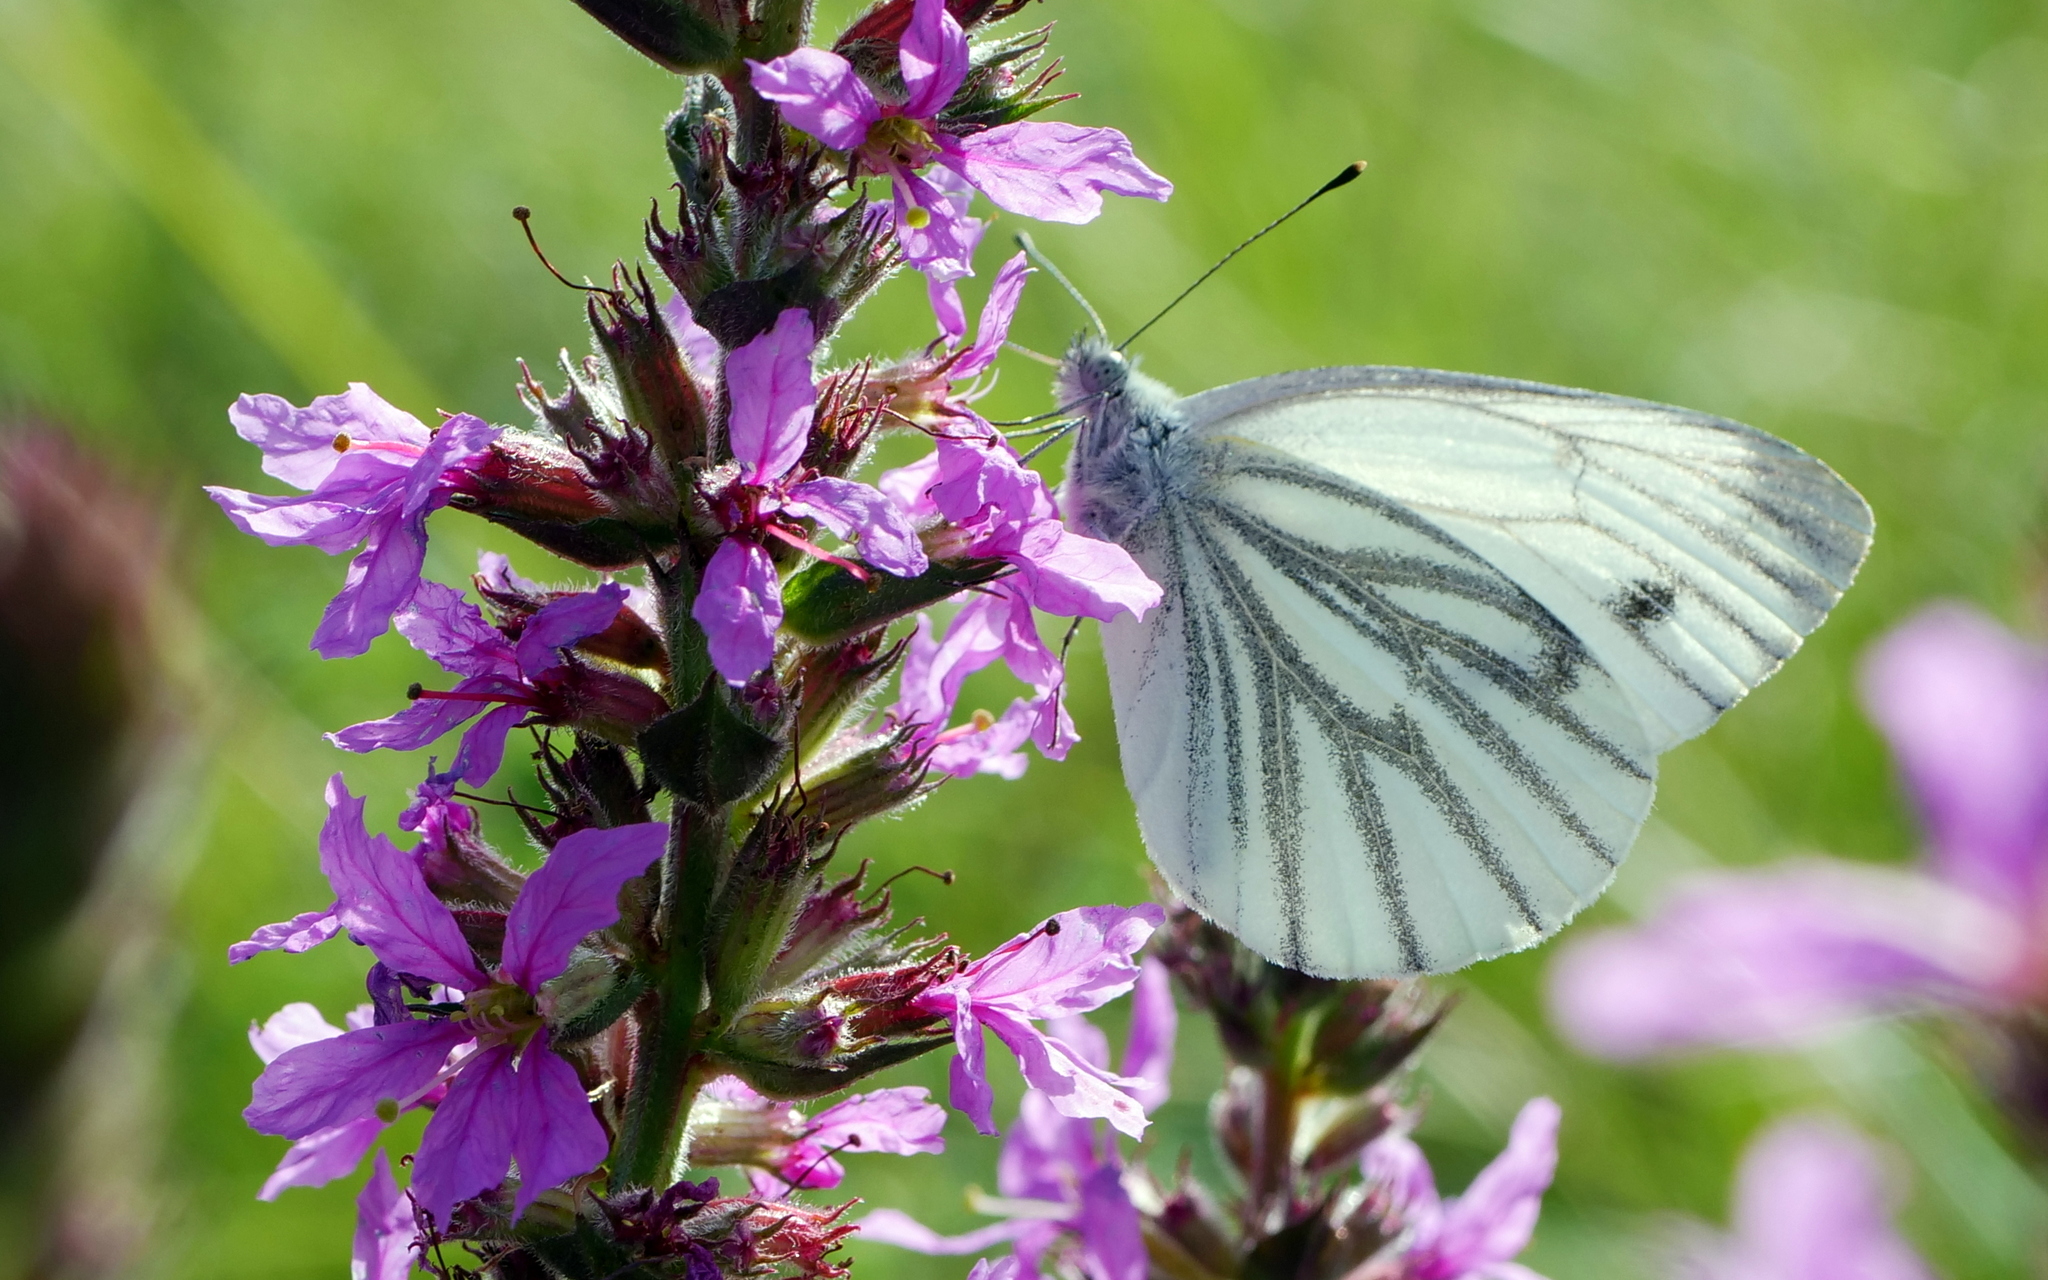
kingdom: Plantae
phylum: Tracheophyta
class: Magnoliopsida
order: Myrtales
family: Lythraceae
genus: Lythrum
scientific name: Lythrum salicaria
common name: Purple loosestrife
